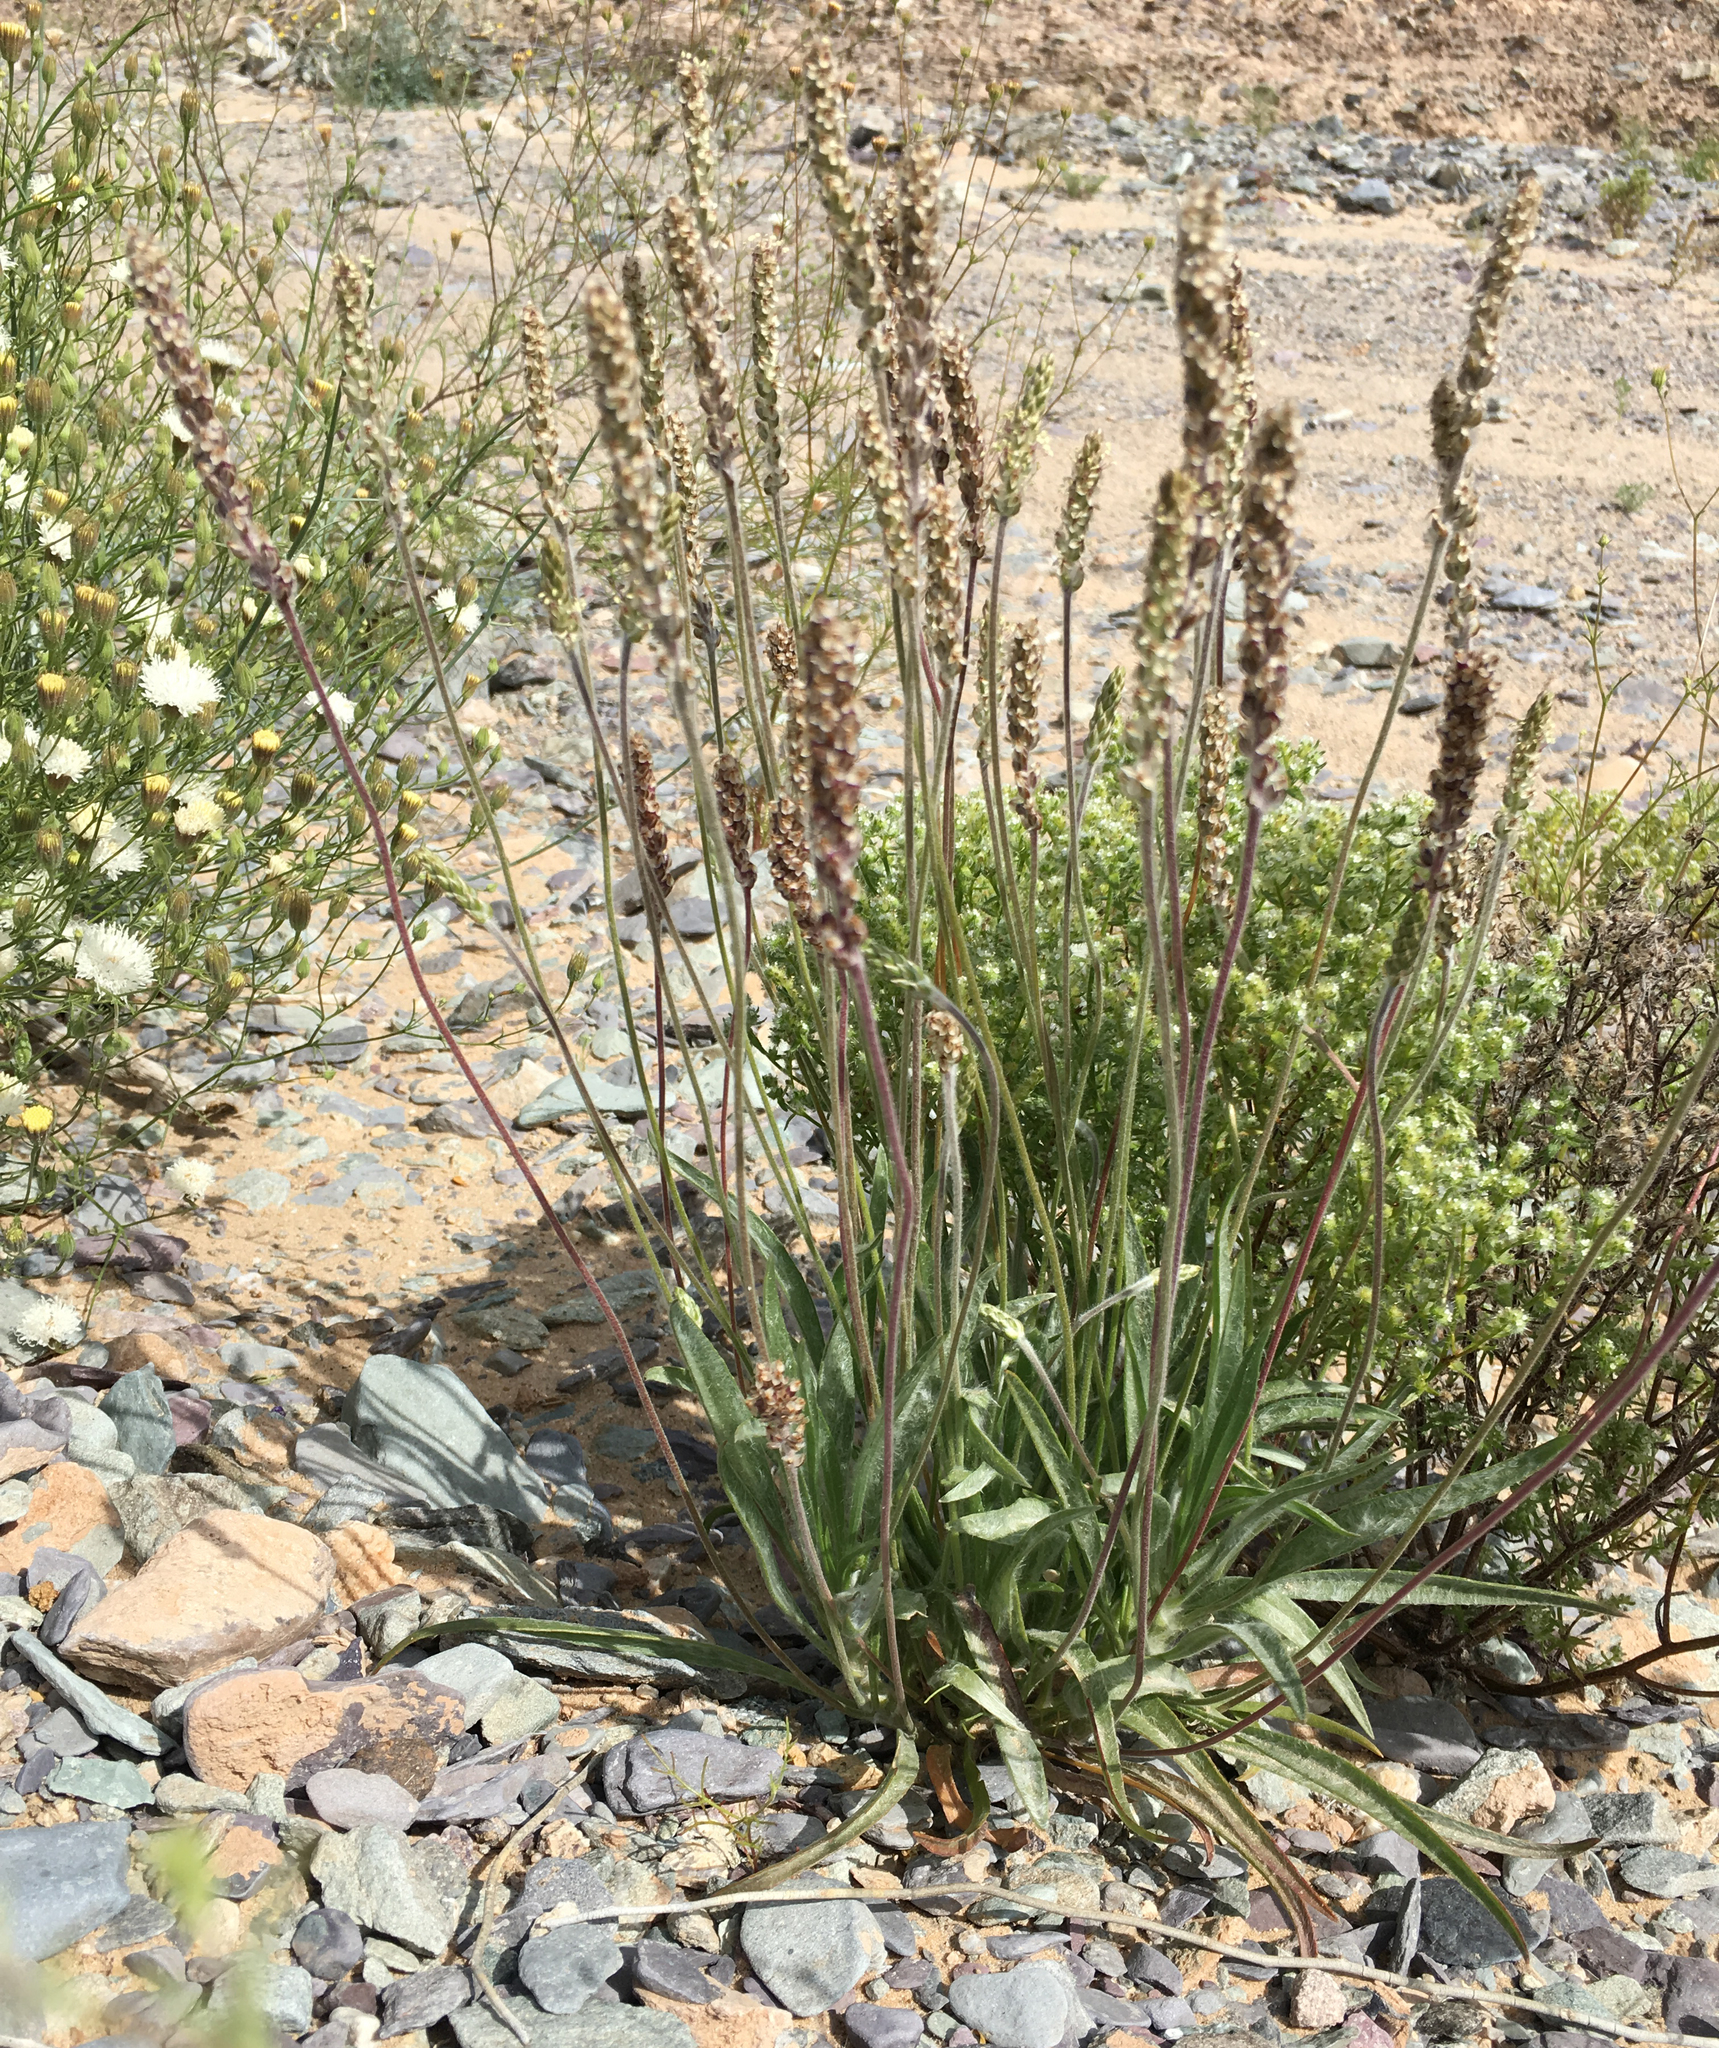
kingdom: Plantae
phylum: Tracheophyta
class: Magnoliopsida
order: Lamiales
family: Plantaginaceae
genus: Plantago
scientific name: Plantago ovata
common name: Blond plantain
